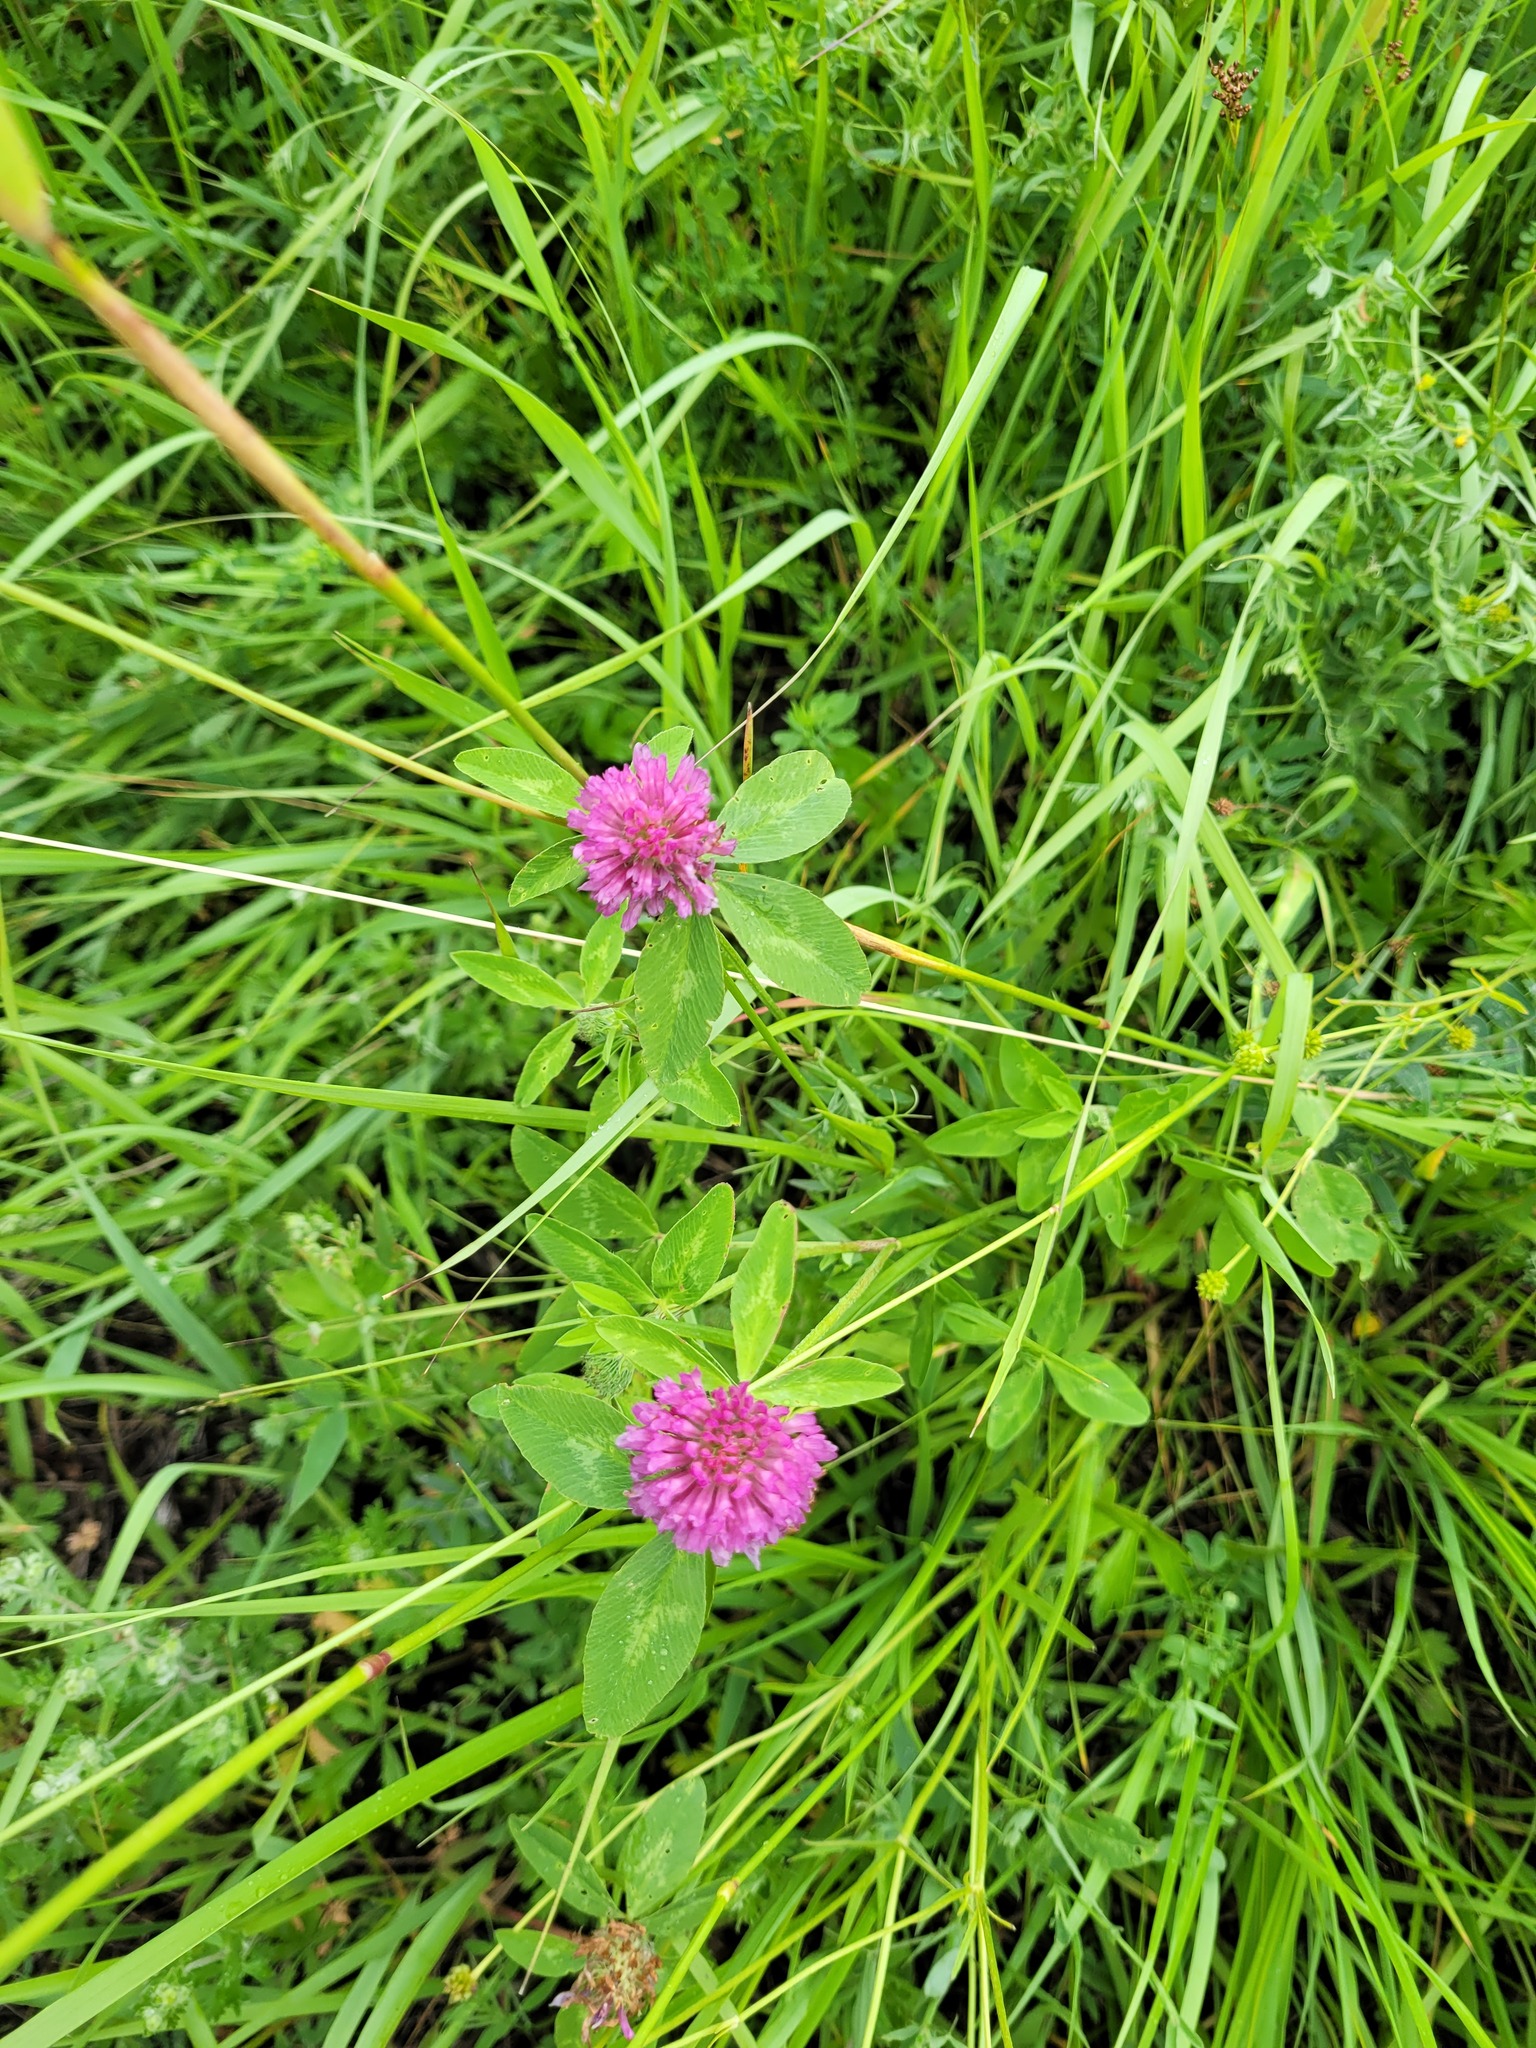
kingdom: Plantae
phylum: Tracheophyta
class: Magnoliopsida
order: Fabales
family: Fabaceae
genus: Trifolium
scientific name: Trifolium pratense
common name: Red clover
